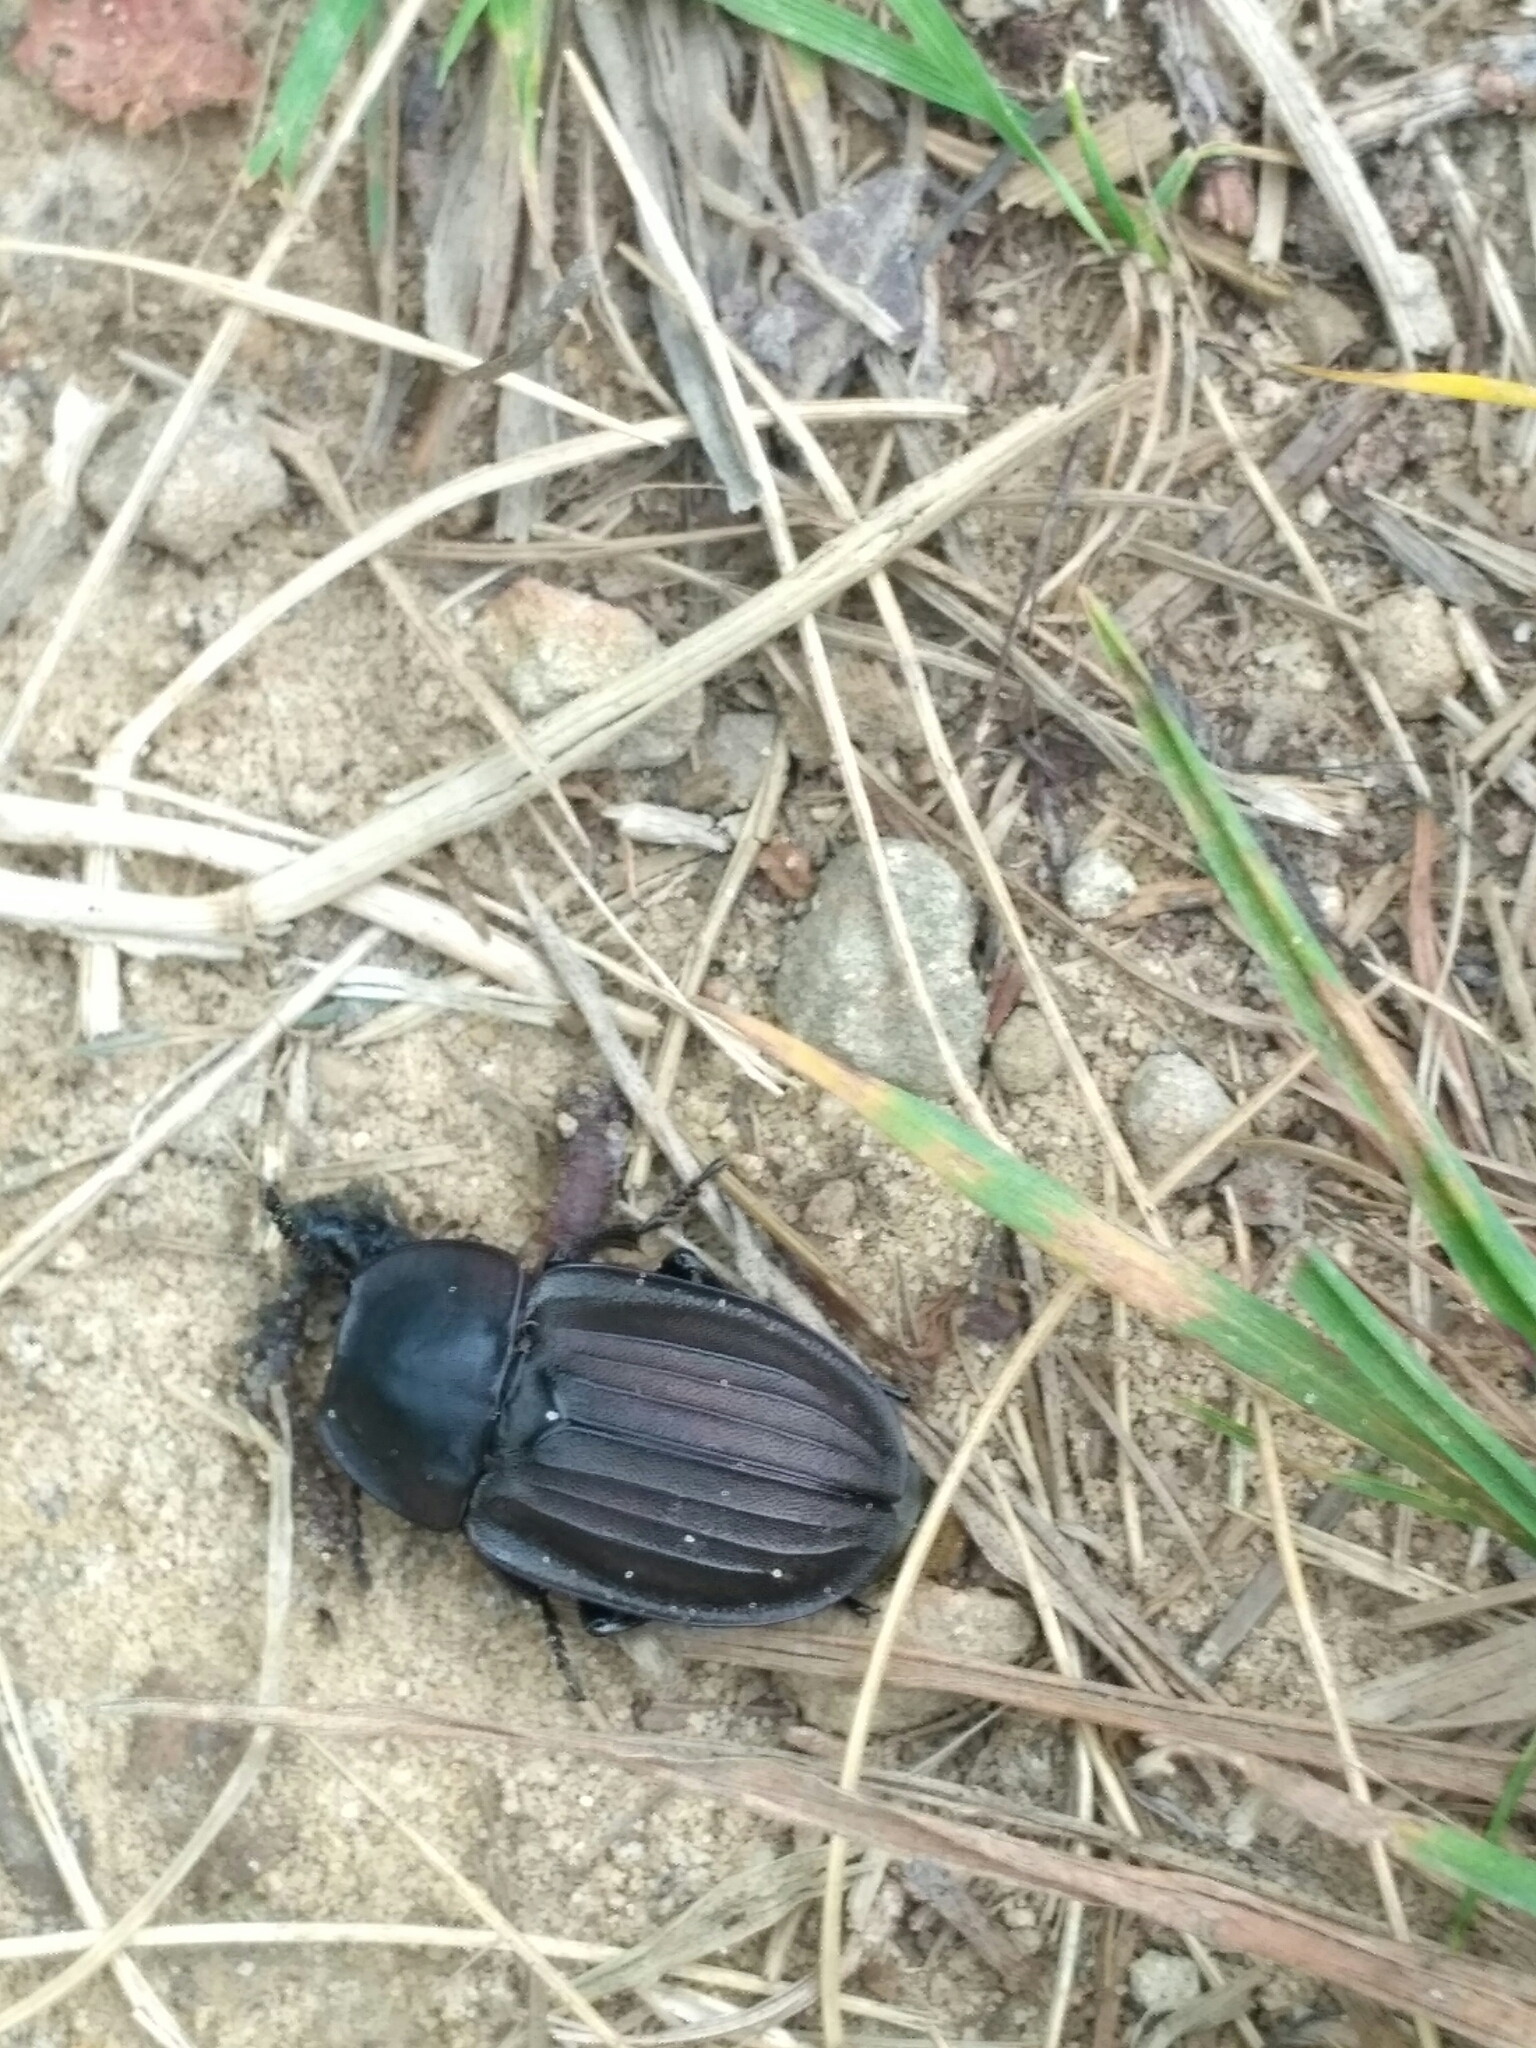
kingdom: Animalia
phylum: Arthropoda
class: Insecta
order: Coleoptera
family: Staphylinidae
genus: Silpha
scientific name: Silpha carinata
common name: Silphid beetle
